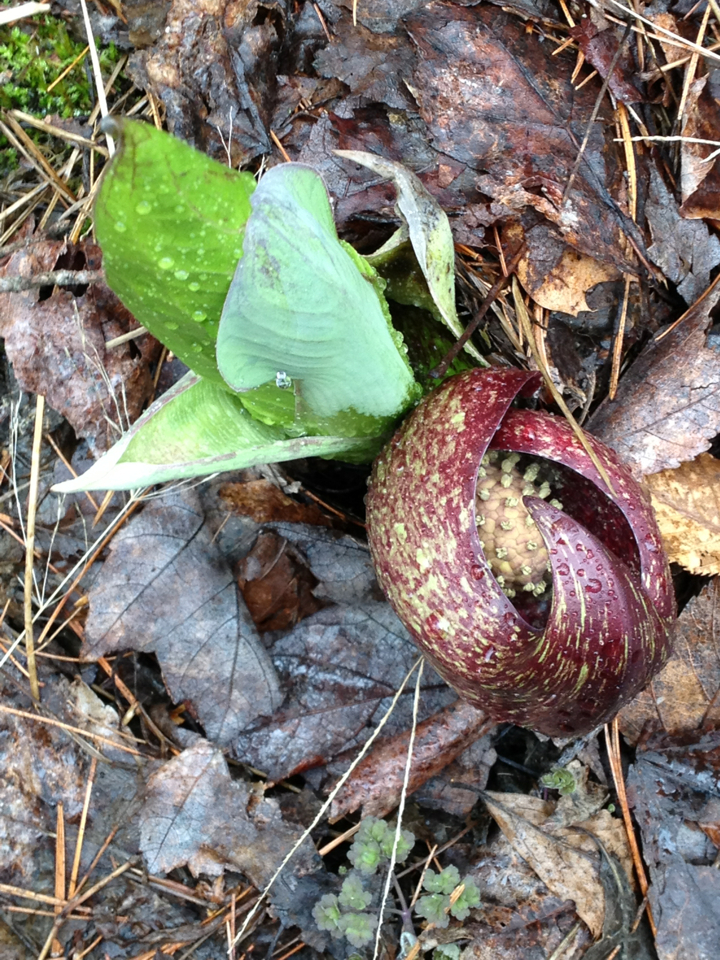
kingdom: Plantae
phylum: Tracheophyta
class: Liliopsida
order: Alismatales
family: Araceae
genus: Symplocarpus
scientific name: Symplocarpus foetidus
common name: Eastern skunk cabbage
